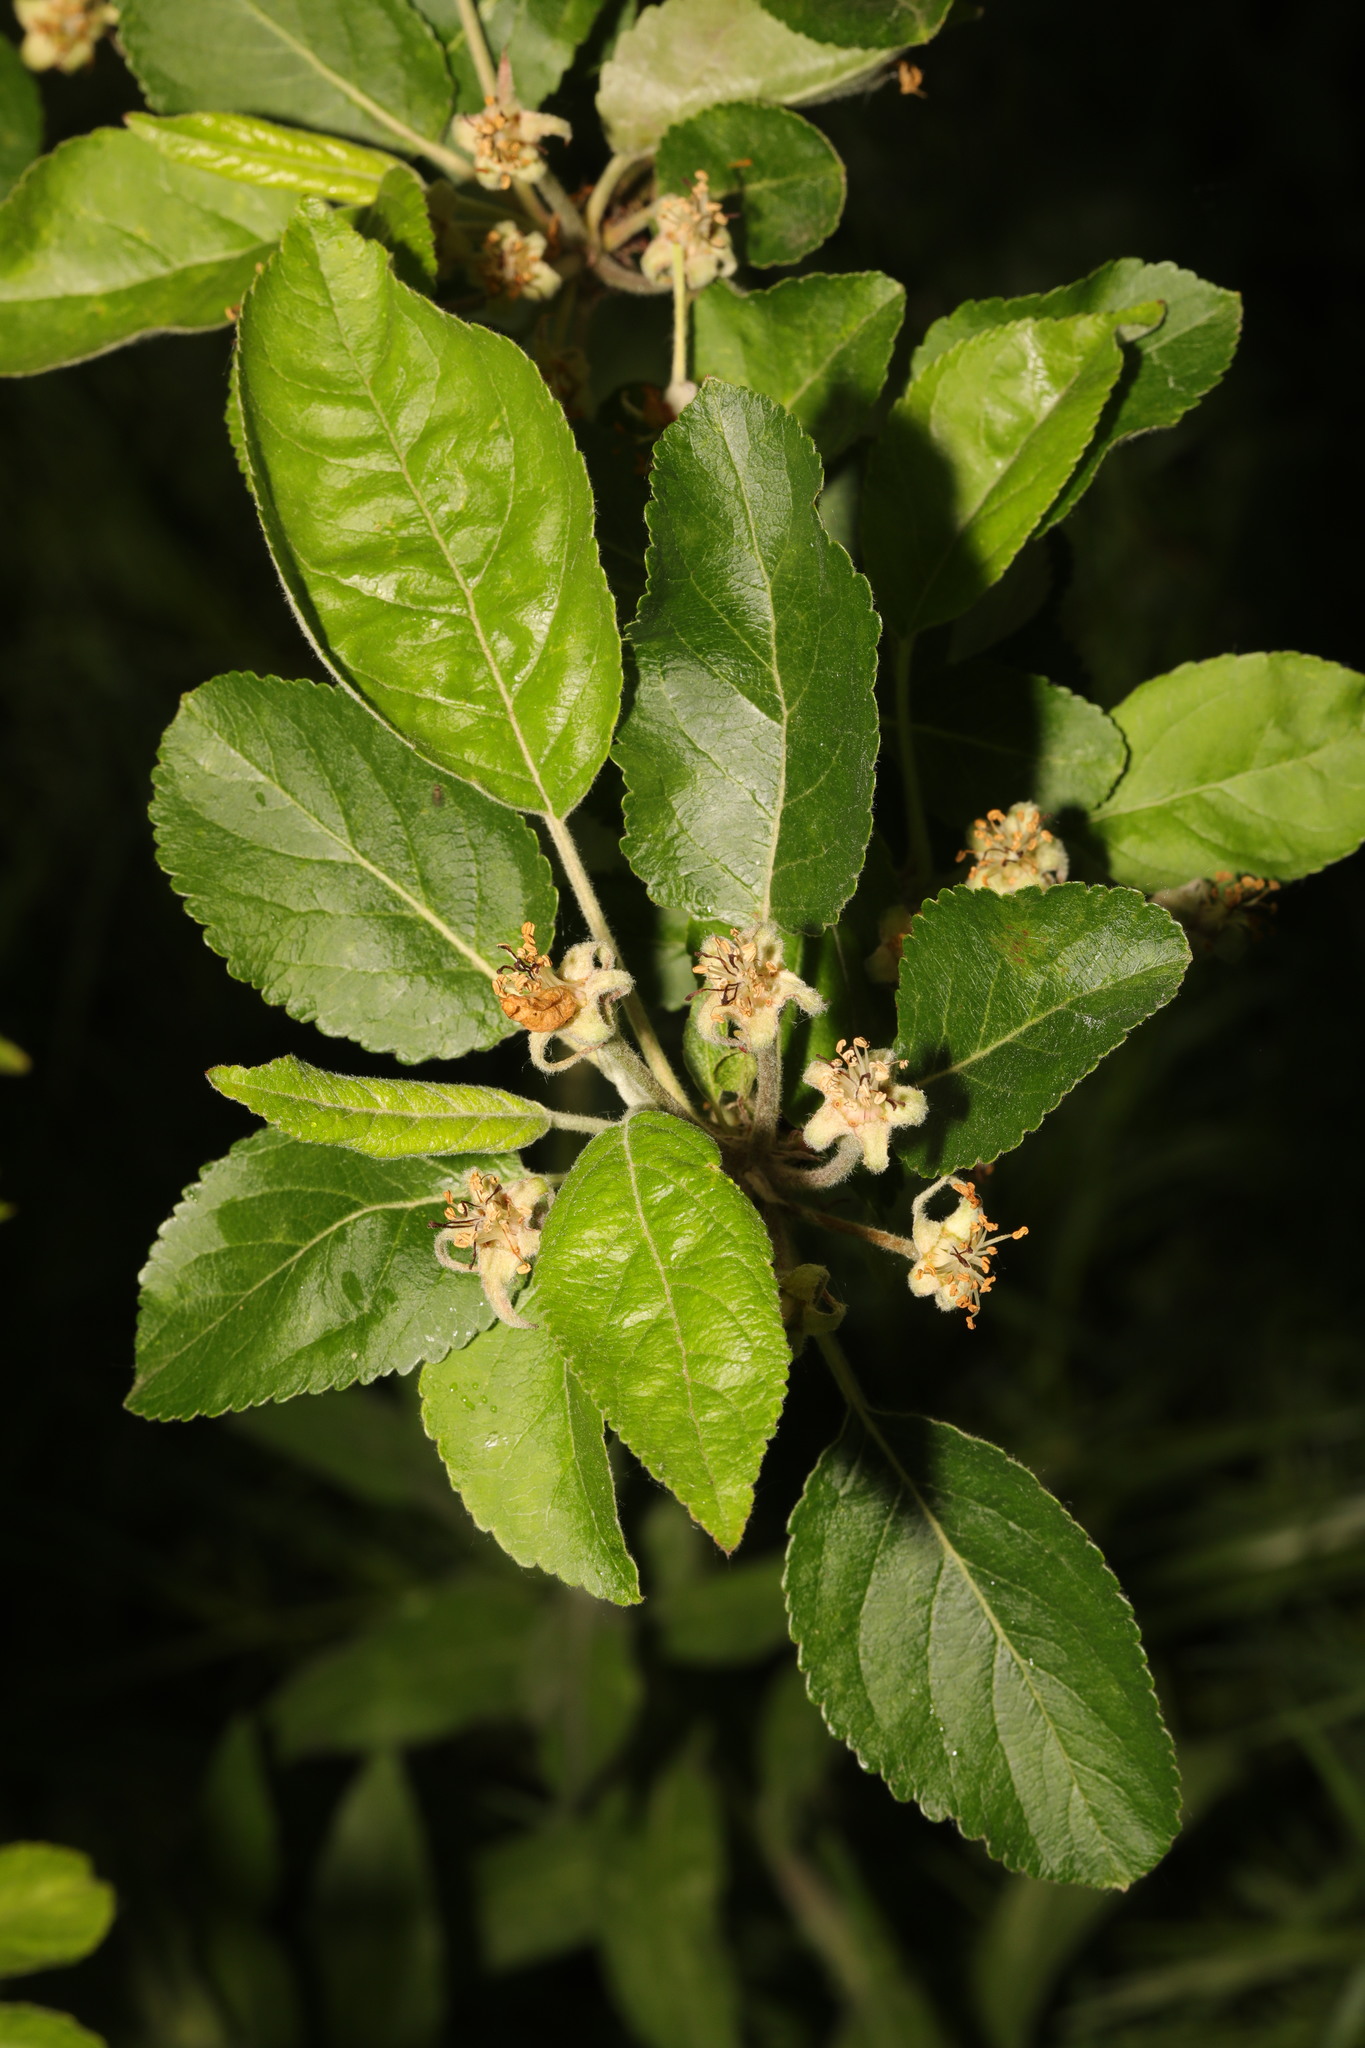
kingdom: Plantae
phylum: Tracheophyta
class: Magnoliopsida
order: Rosales
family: Rosaceae
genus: Malus
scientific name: Malus domestica
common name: Apple
